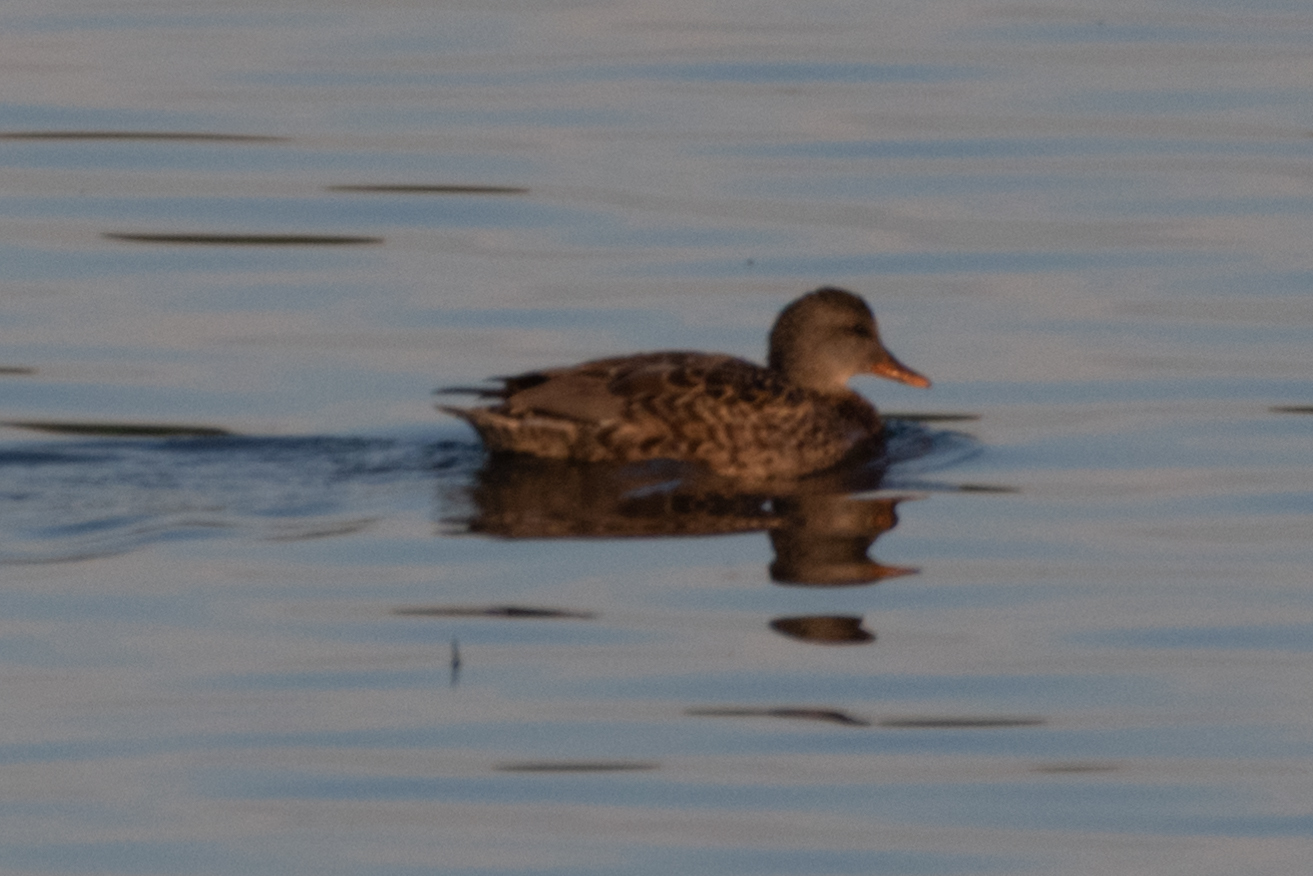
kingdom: Animalia
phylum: Chordata
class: Aves
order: Anseriformes
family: Anatidae
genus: Mareca
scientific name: Mareca strepera
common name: Gadwall
